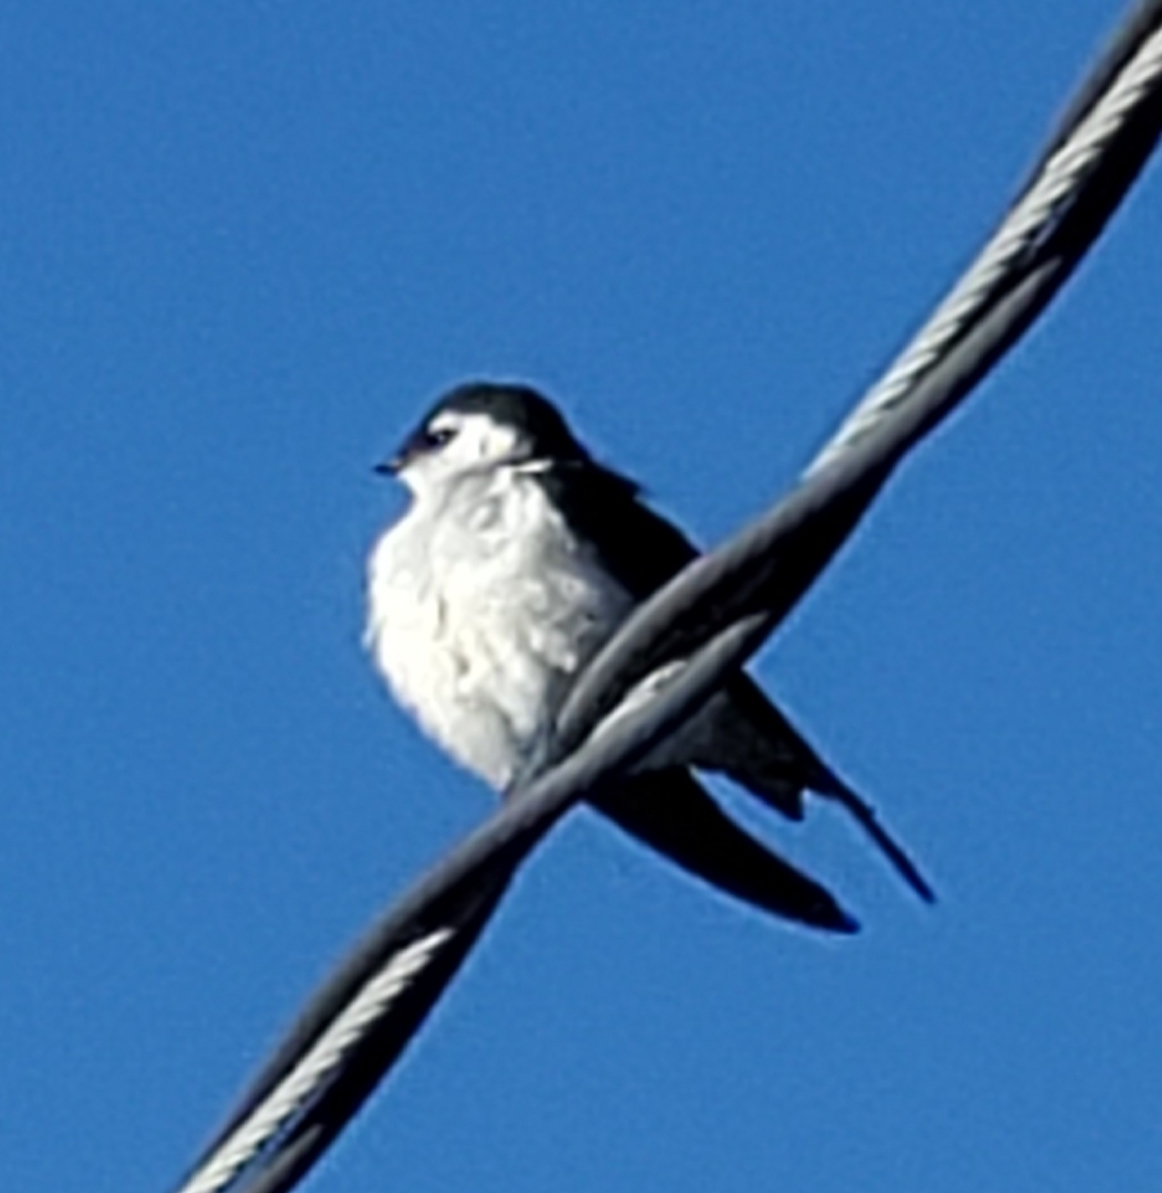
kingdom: Animalia
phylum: Chordata
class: Aves
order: Passeriformes
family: Hirundinidae
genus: Tachycineta
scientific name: Tachycineta thalassina
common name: Violet-green swallow
